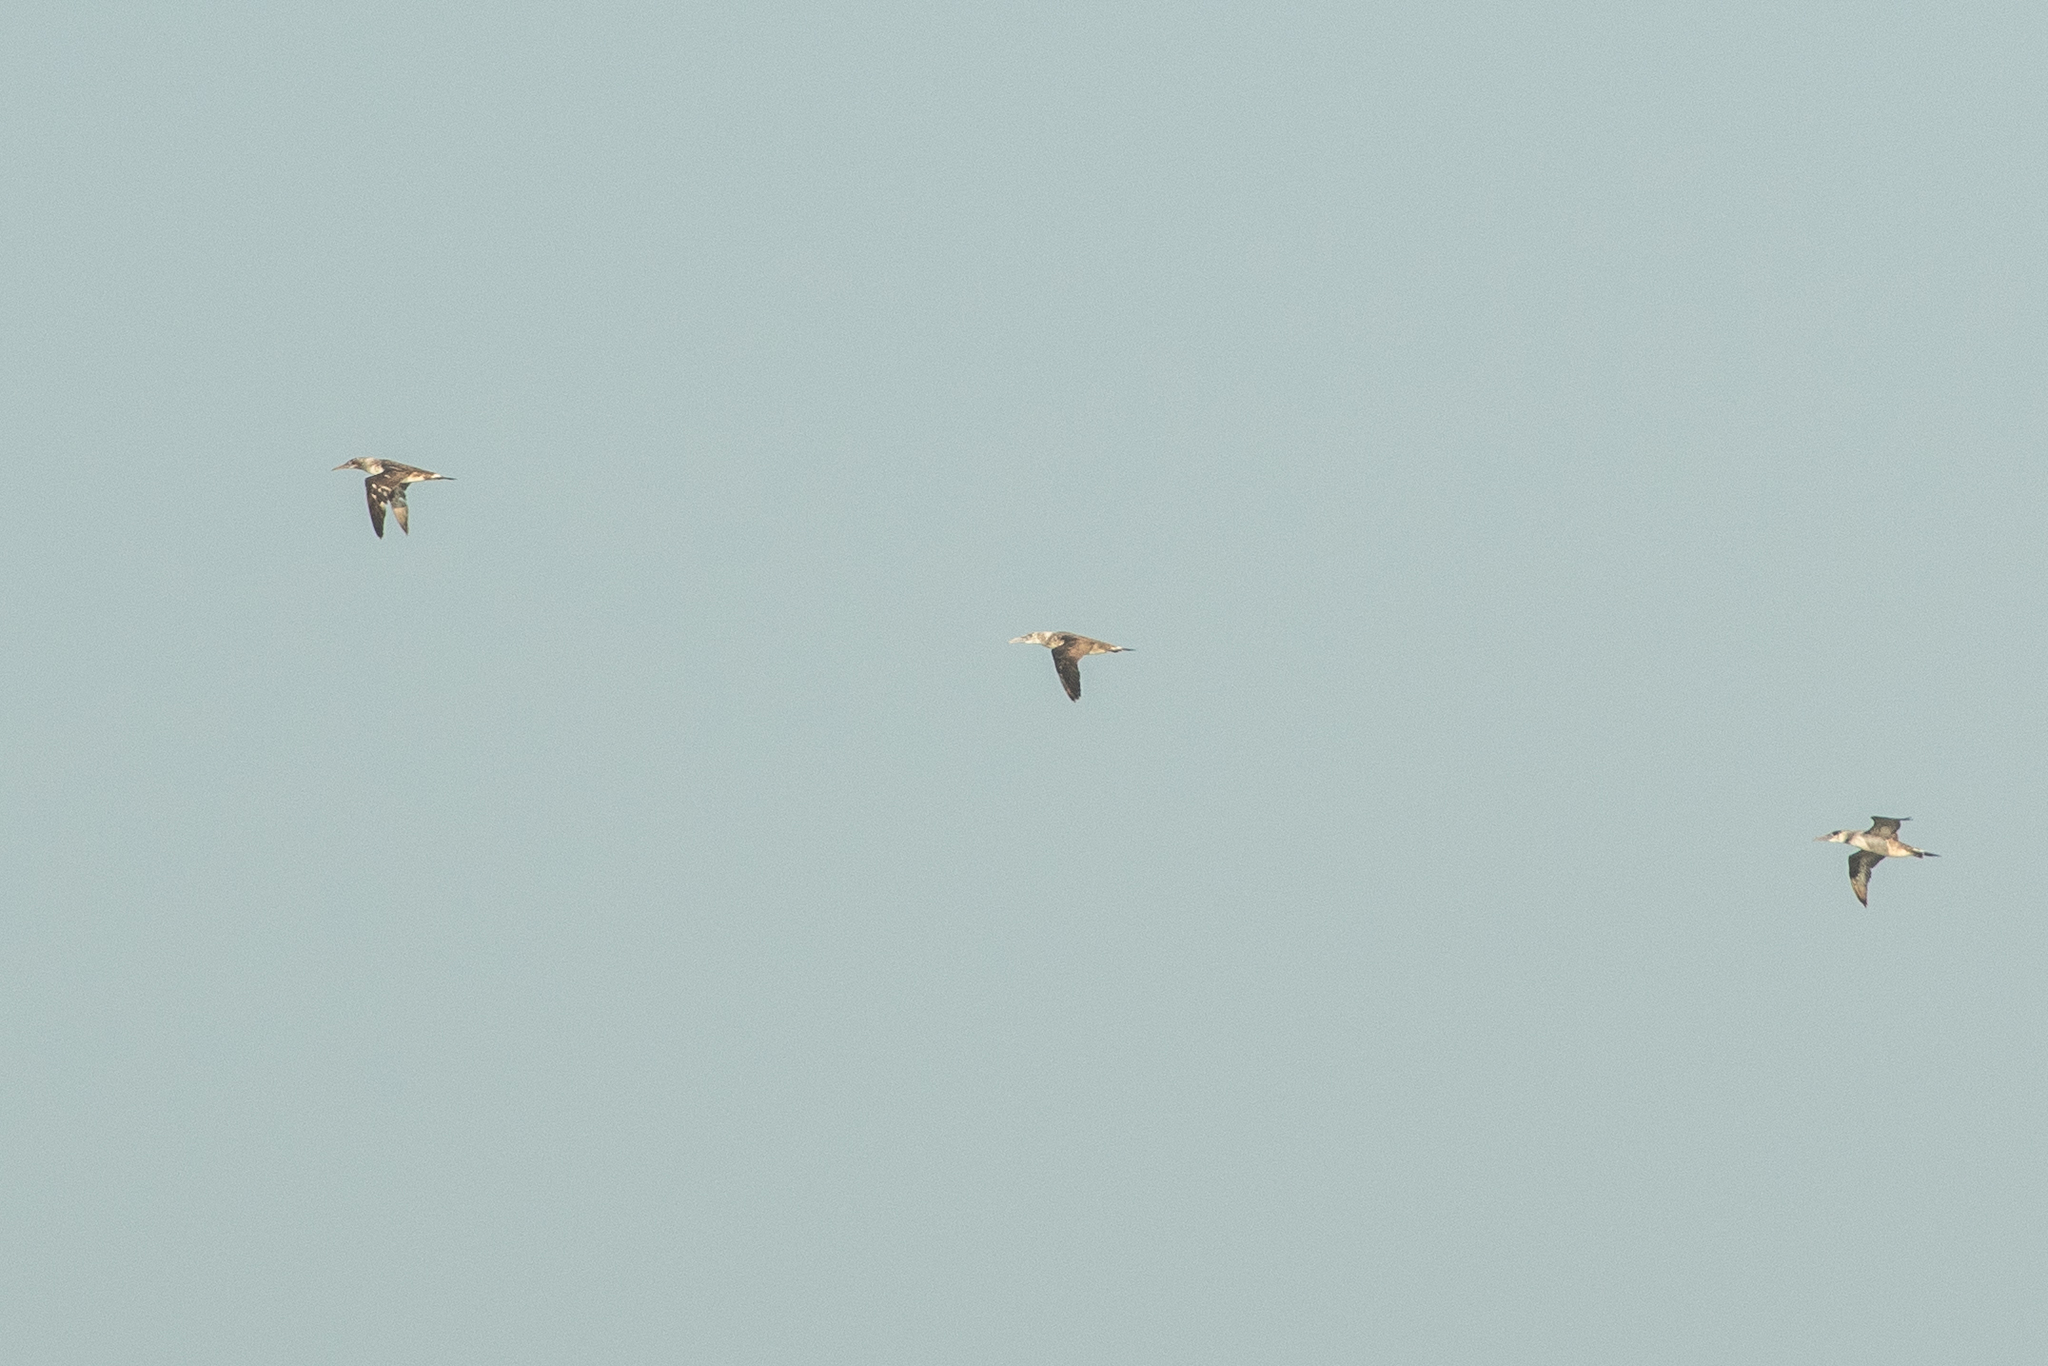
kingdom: Animalia
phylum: Chordata
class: Aves
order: Suliformes
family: Sulidae
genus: Morus
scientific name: Morus bassanus
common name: Northern gannet
